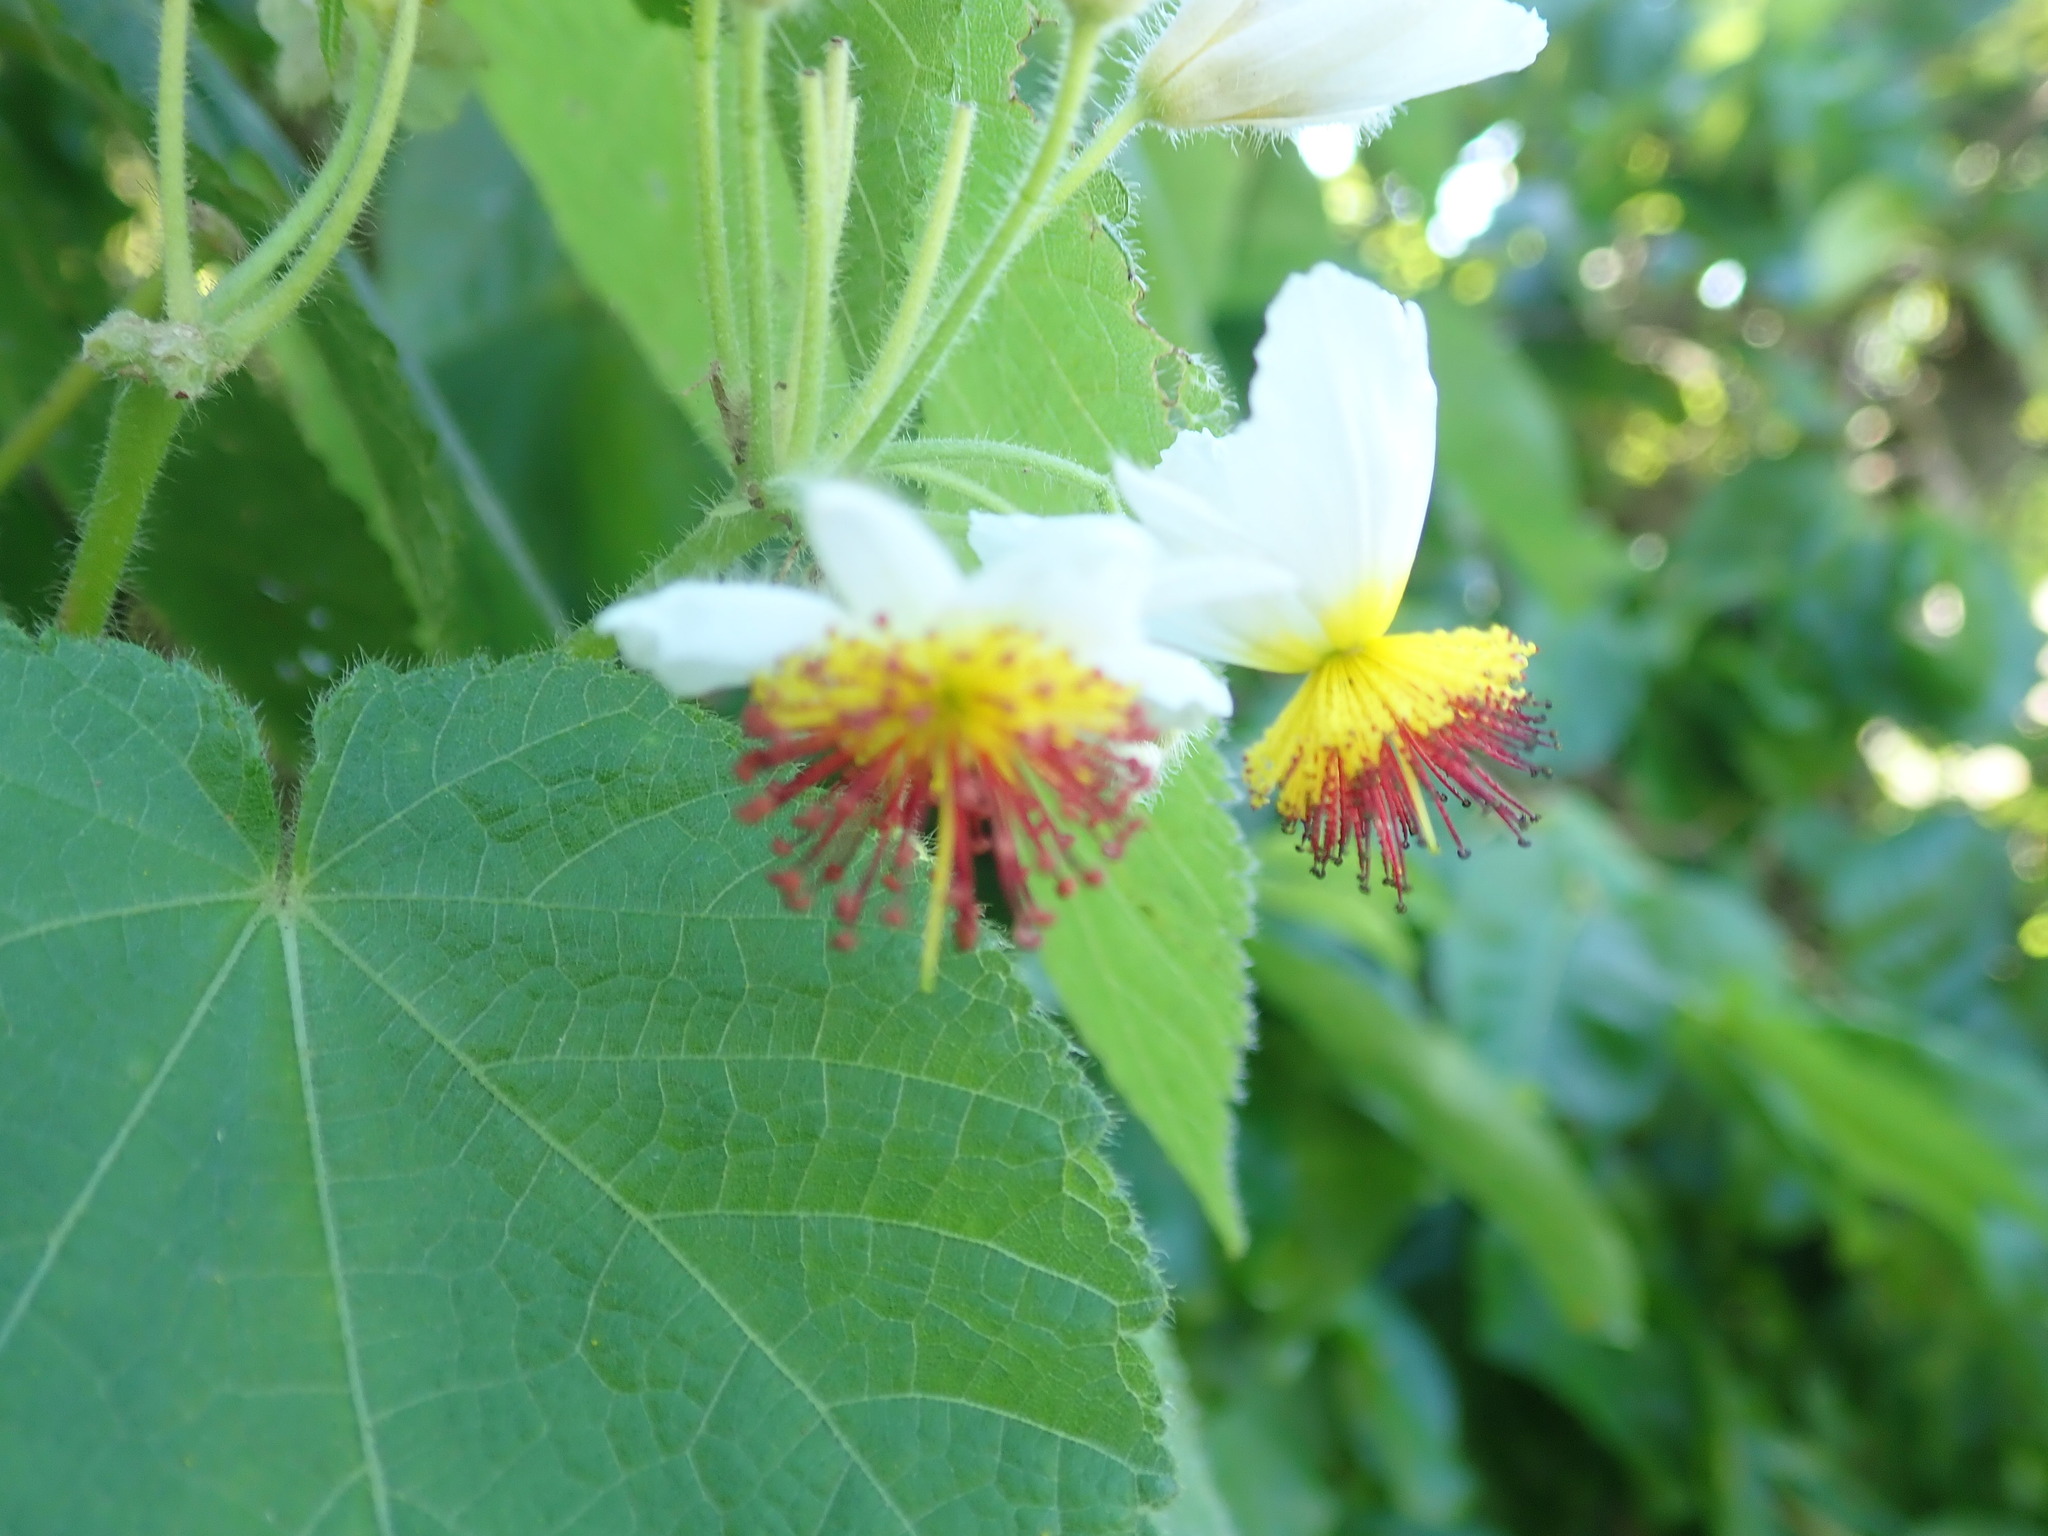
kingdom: Plantae
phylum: Tracheophyta
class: Magnoliopsida
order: Malvales
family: Malvaceae
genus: Sparrmannia
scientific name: Sparrmannia africana
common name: African-hemp
